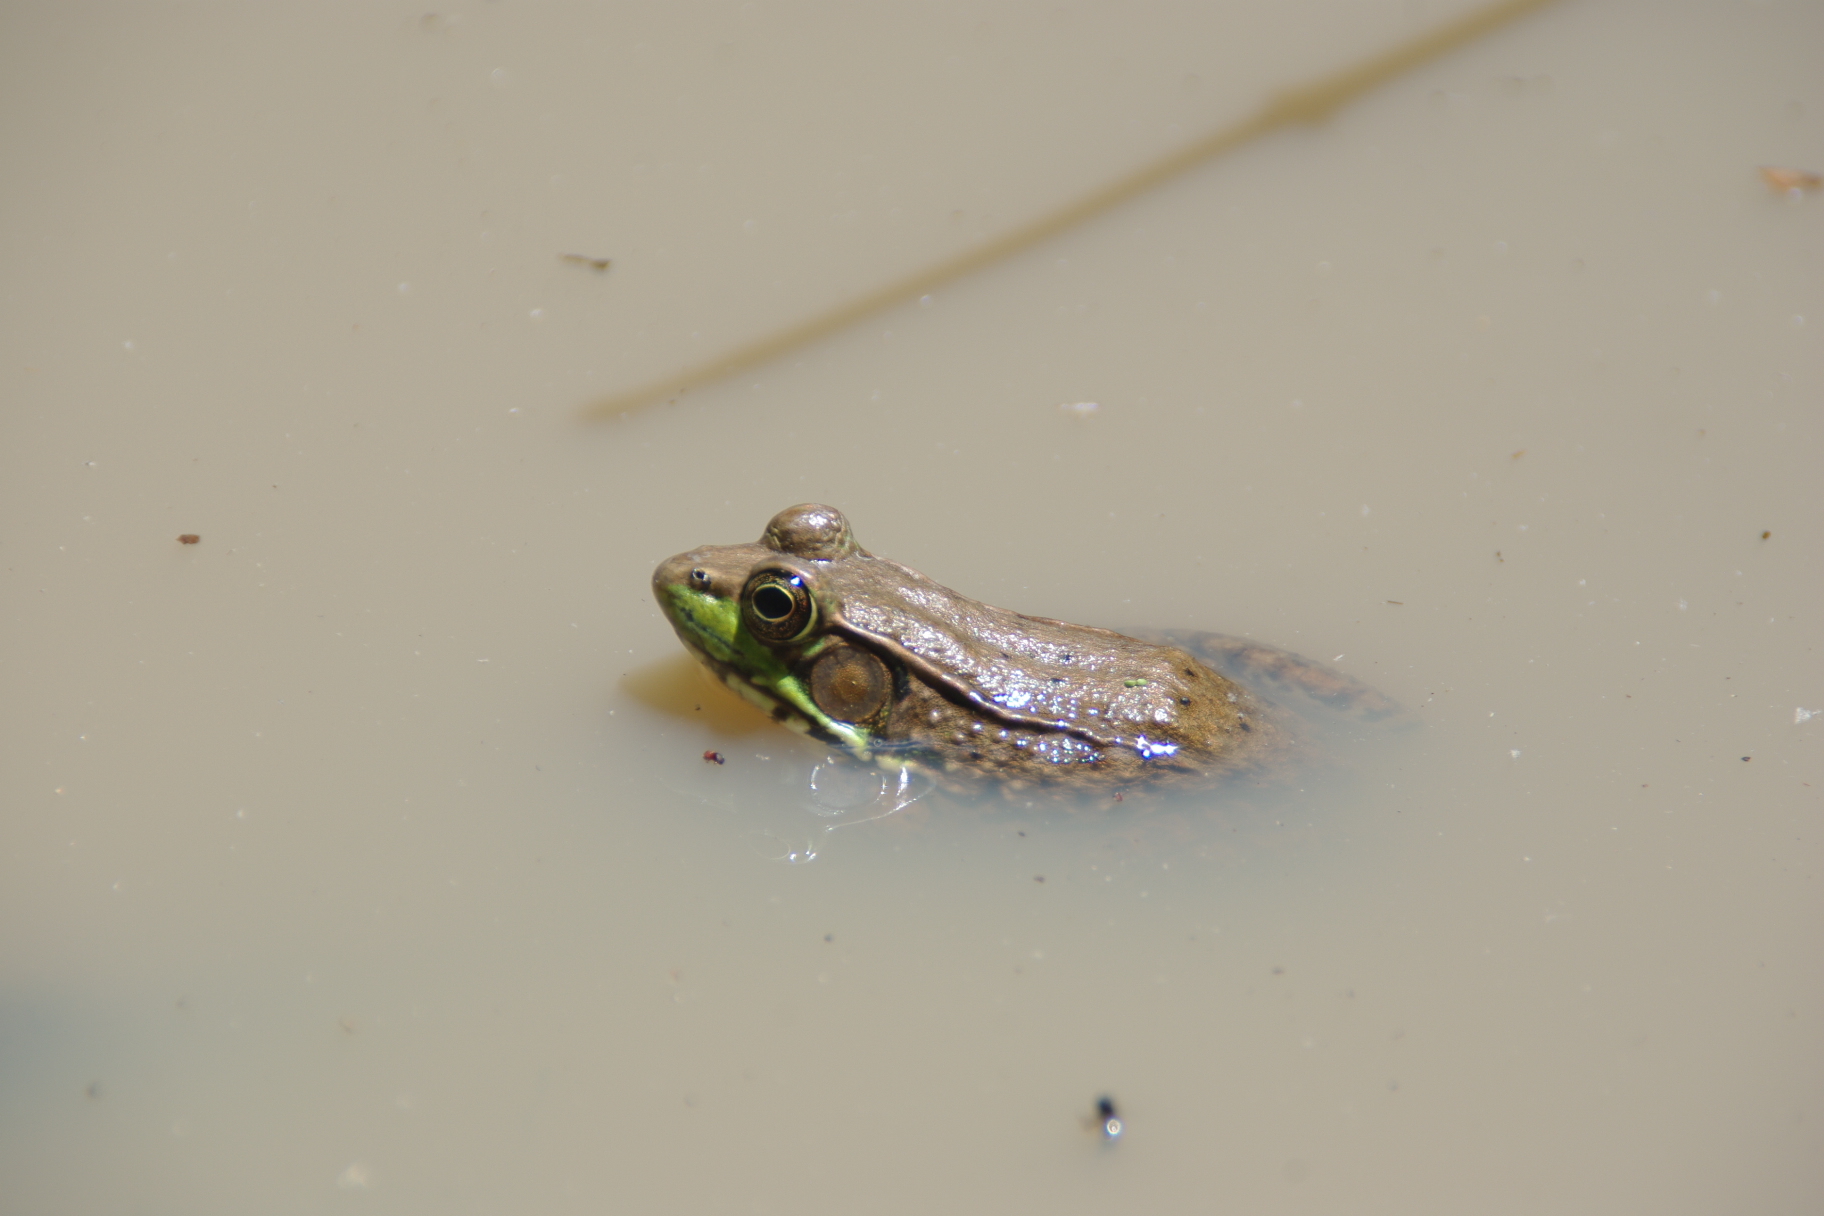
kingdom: Animalia
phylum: Chordata
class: Amphibia
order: Anura
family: Ranidae
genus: Lithobates
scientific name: Lithobates clamitans
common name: Green frog
